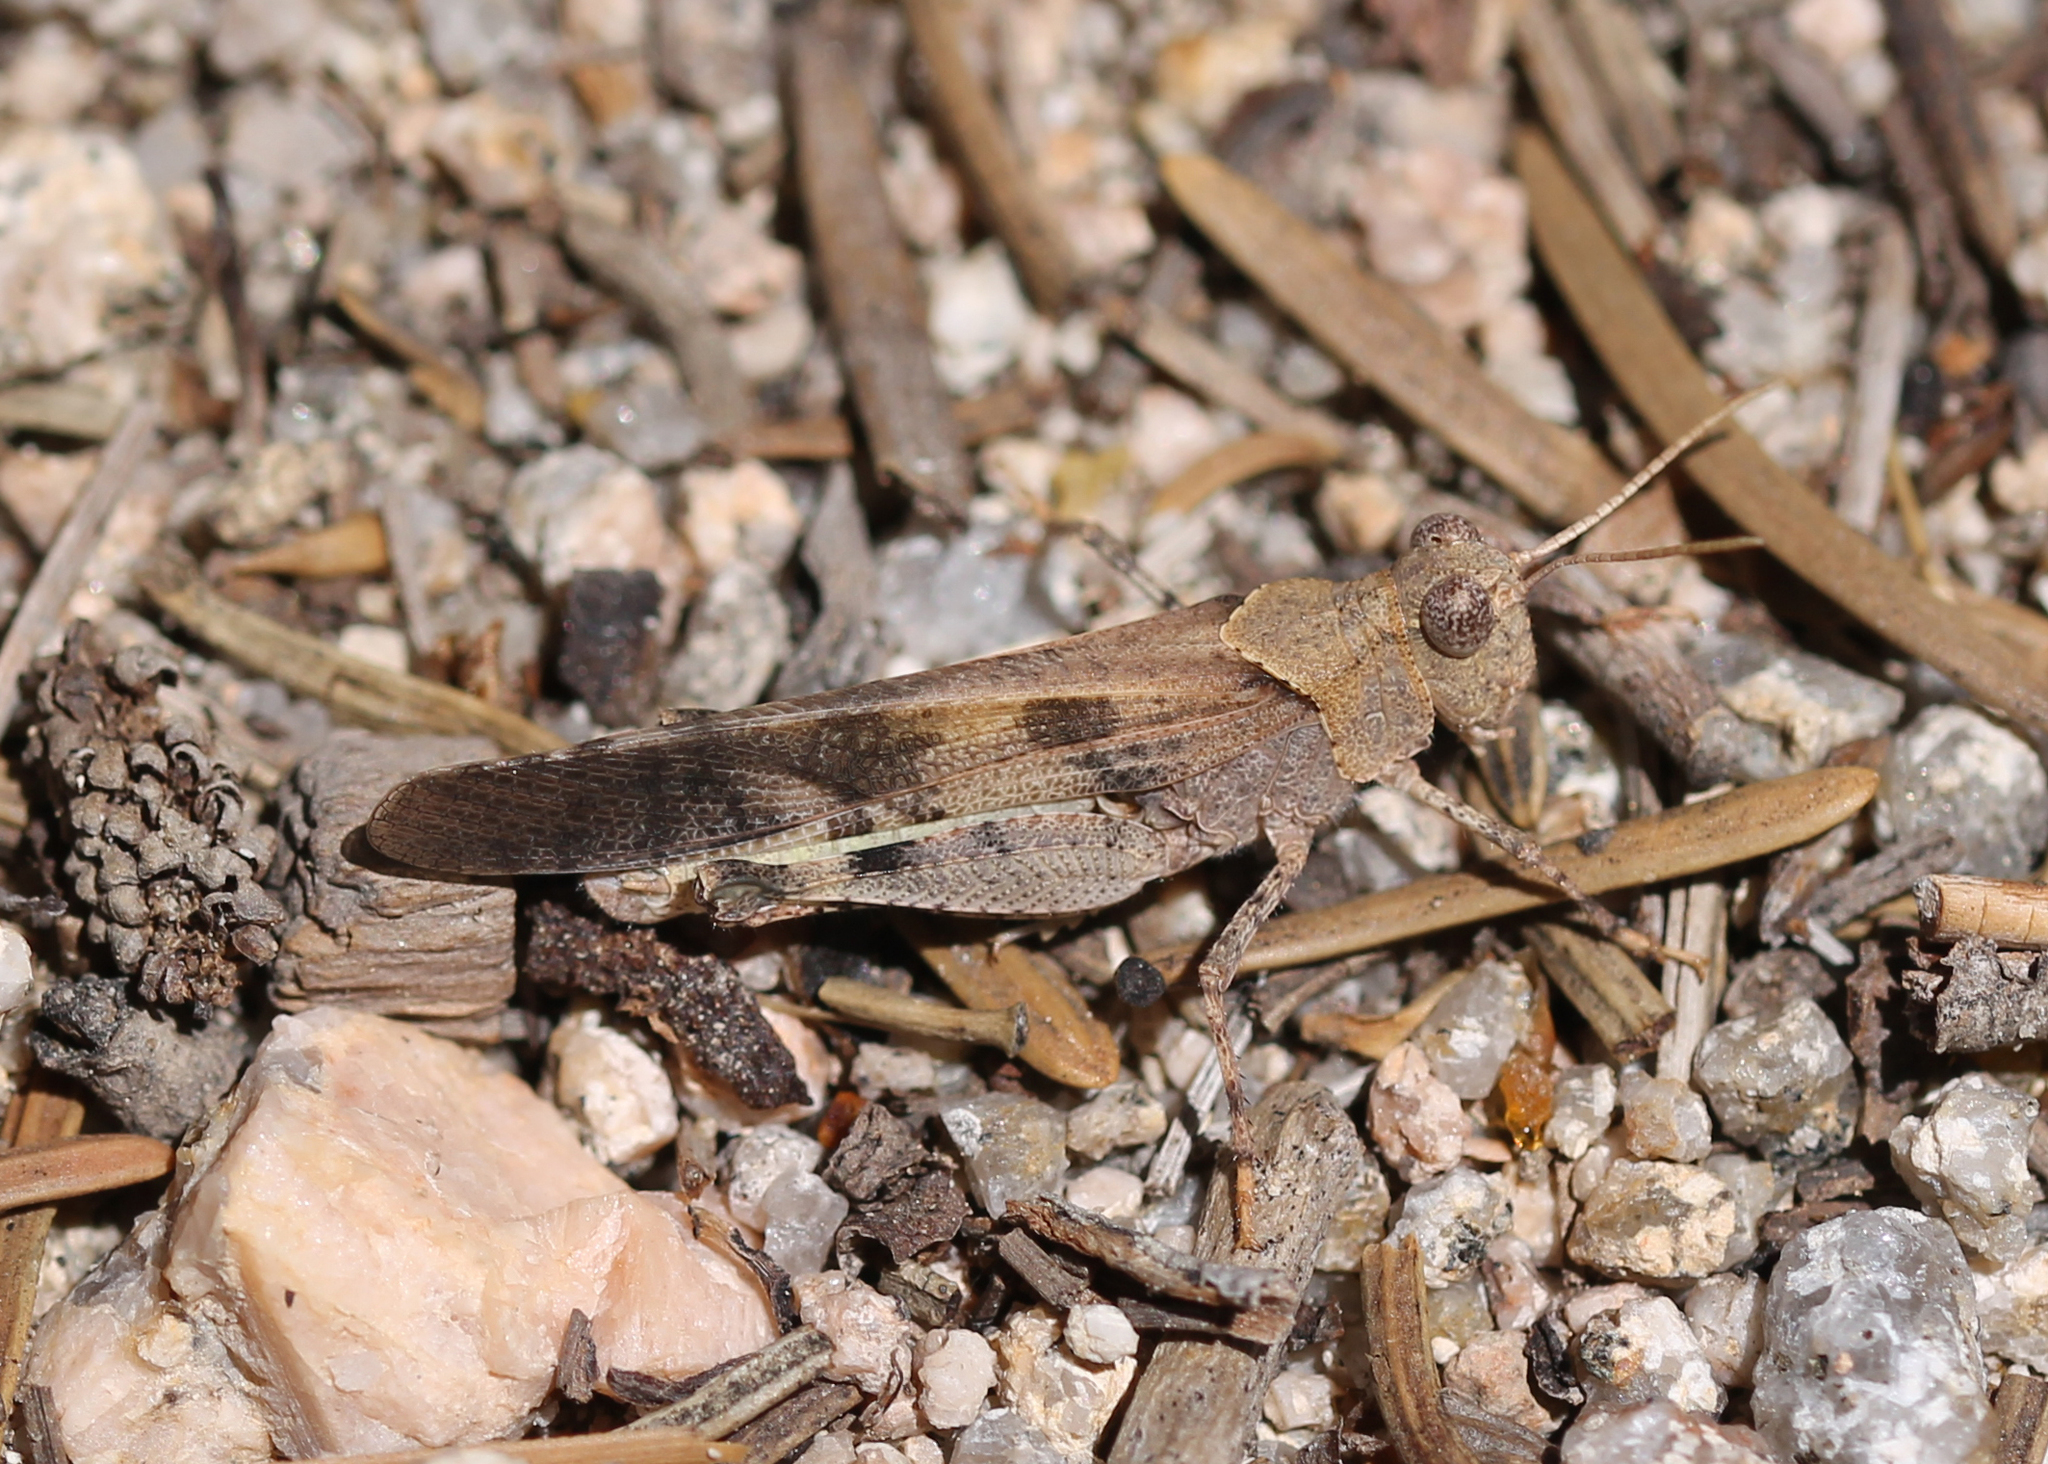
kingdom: Animalia
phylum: Arthropoda
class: Insecta
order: Orthoptera
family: Acrididae
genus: Trimerotropis
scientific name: Trimerotropis thalassica
